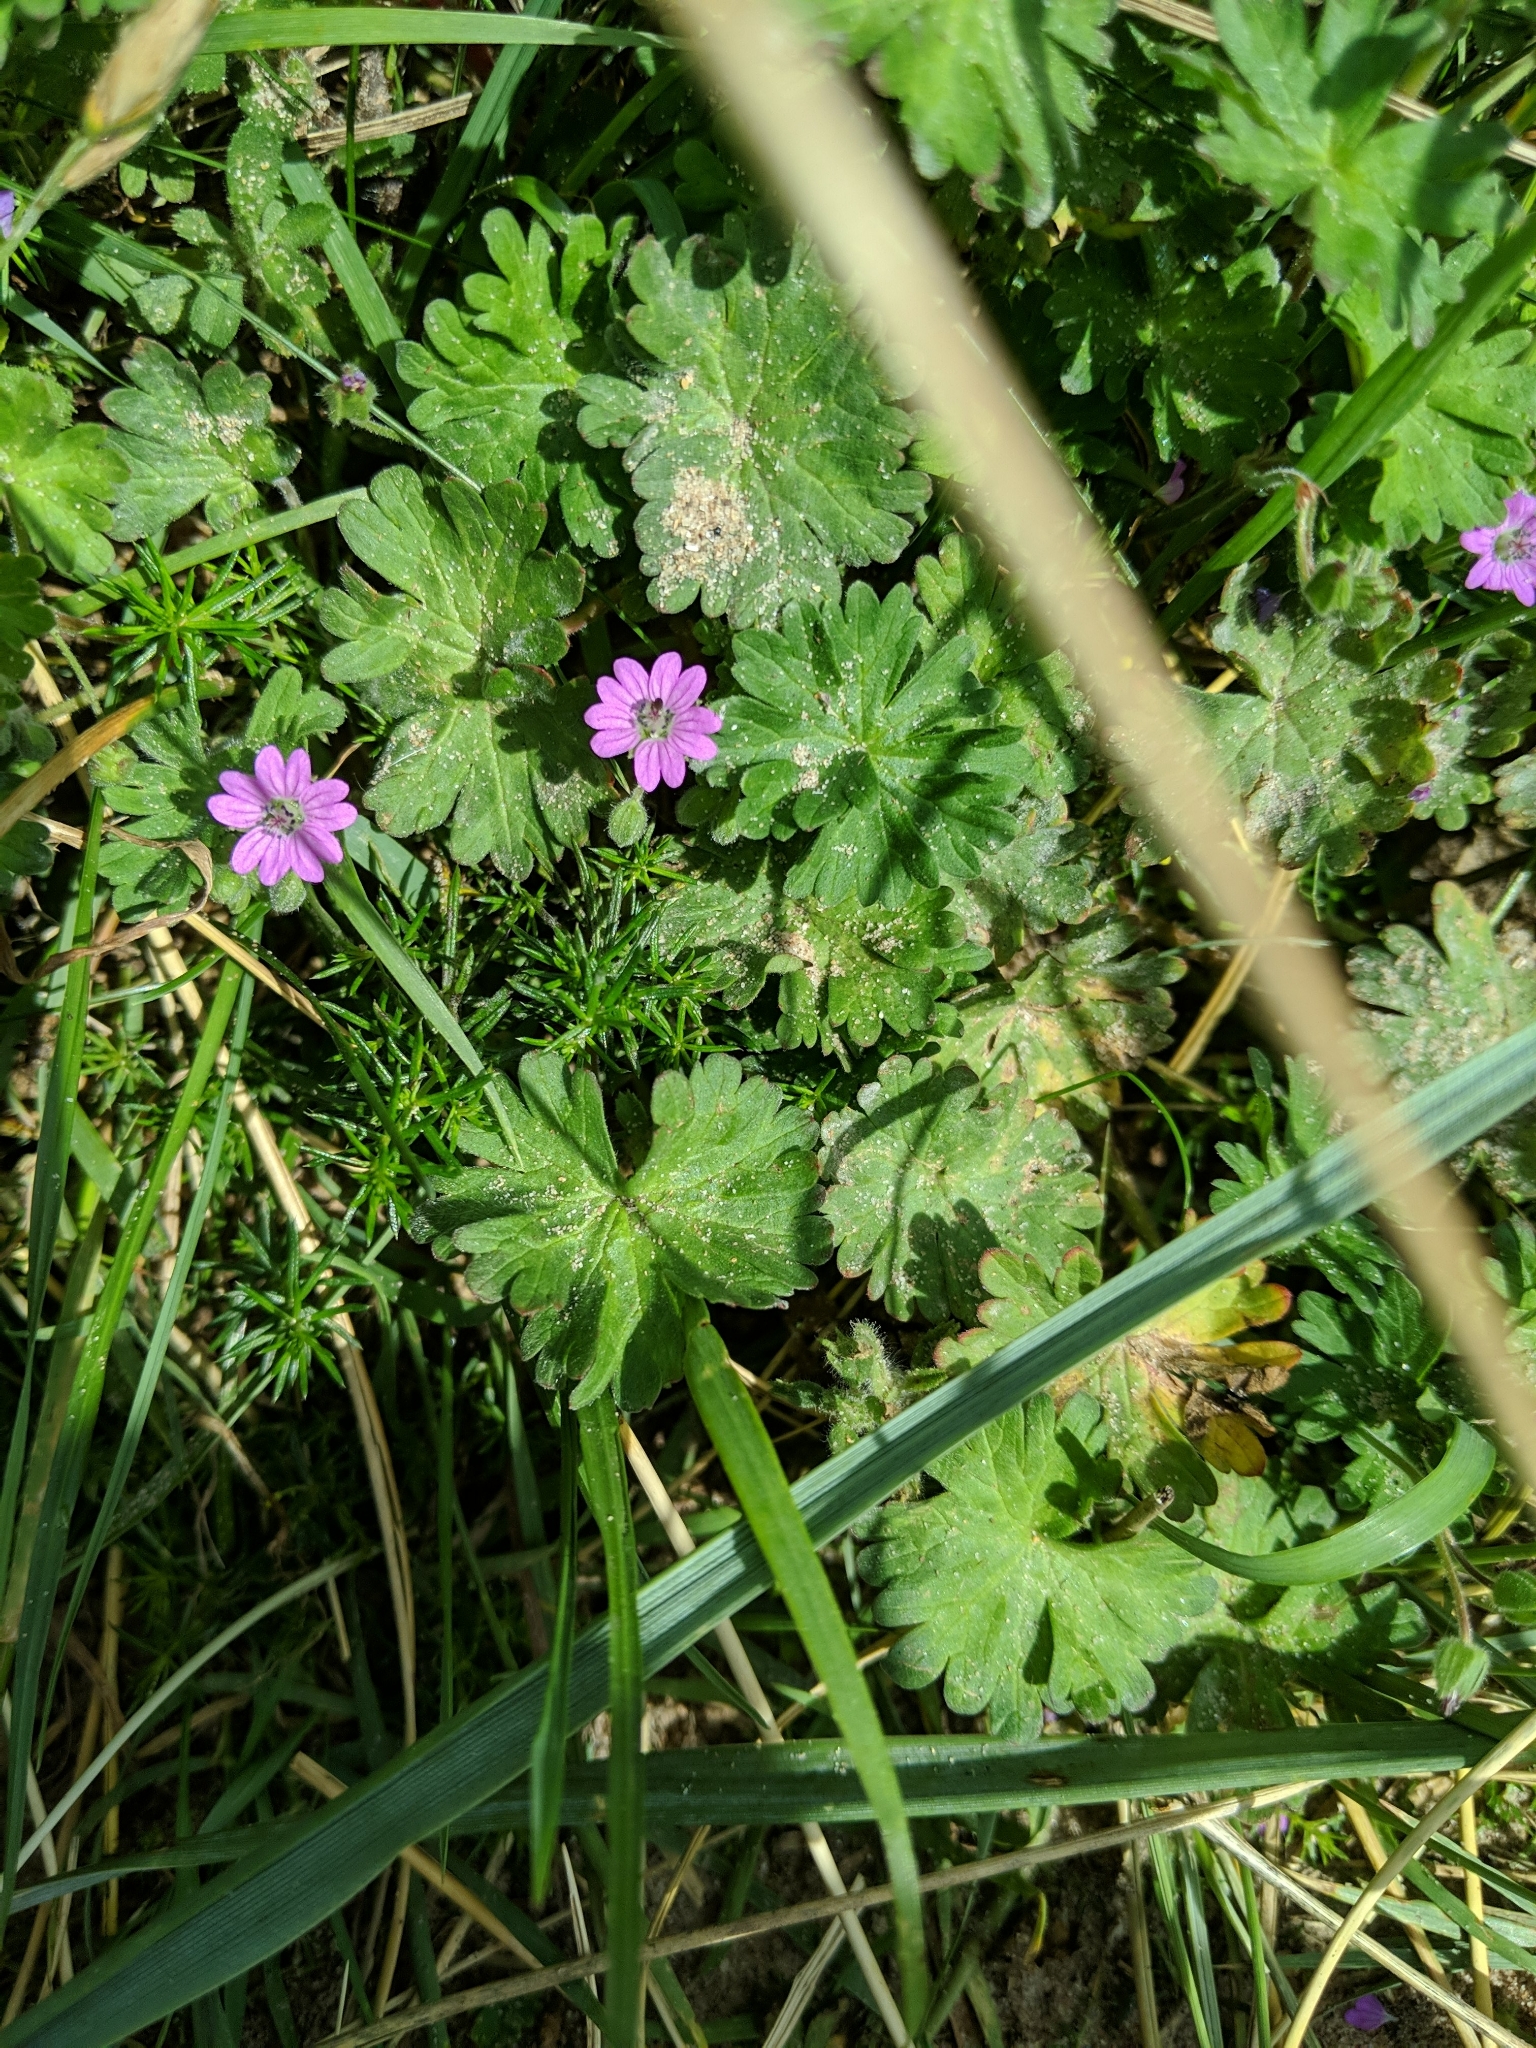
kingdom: Plantae
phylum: Tracheophyta
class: Magnoliopsida
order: Geraniales
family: Geraniaceae
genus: Geranium
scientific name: Geranium molle
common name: Dove's-foot crane's-bill
